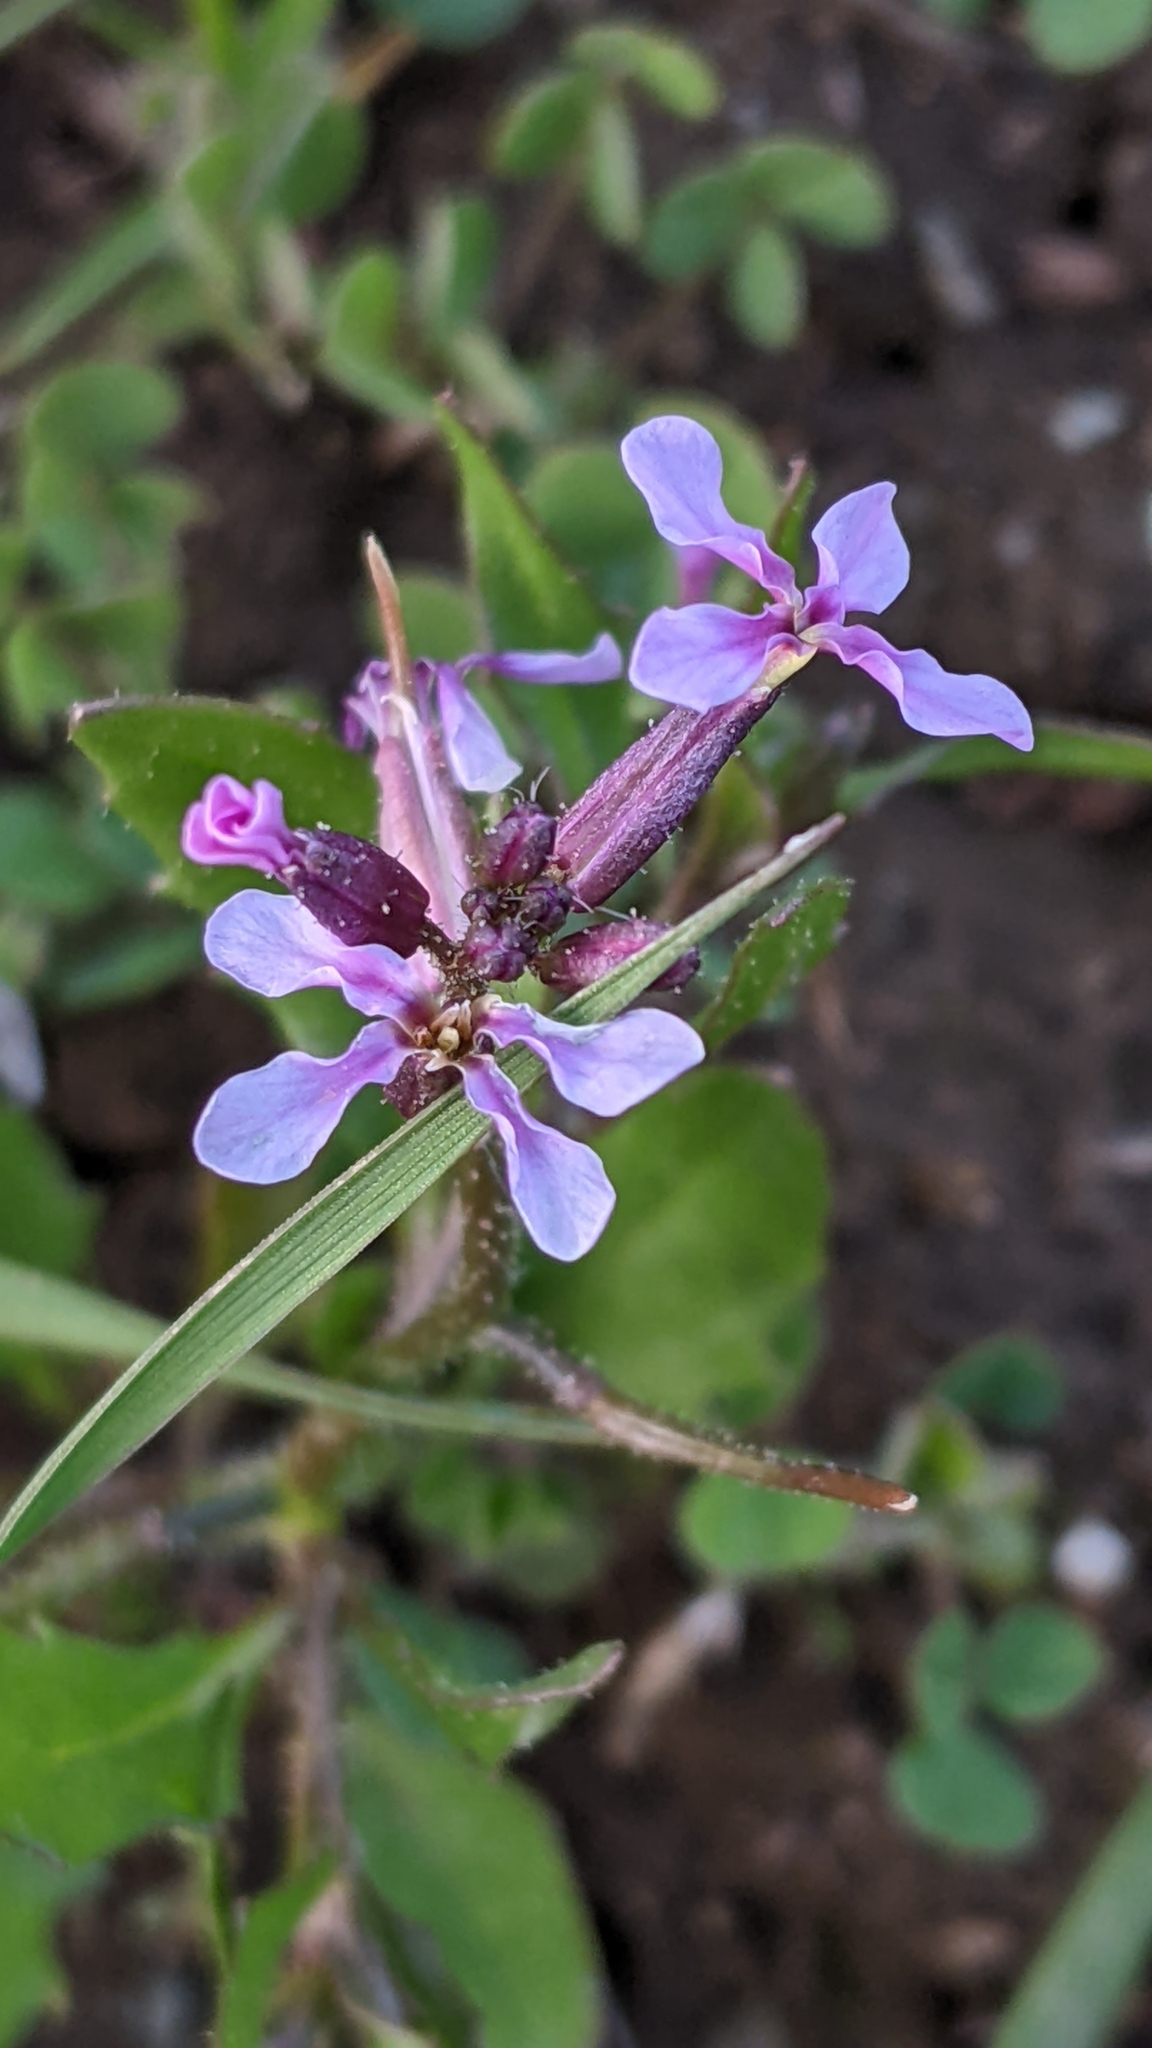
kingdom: Plantae
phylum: Tracheophyta
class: Magnoliopsida
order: Brassicales
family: Brassicaceae
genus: Chorispora
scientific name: Chorispora tenella
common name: Crossflower
